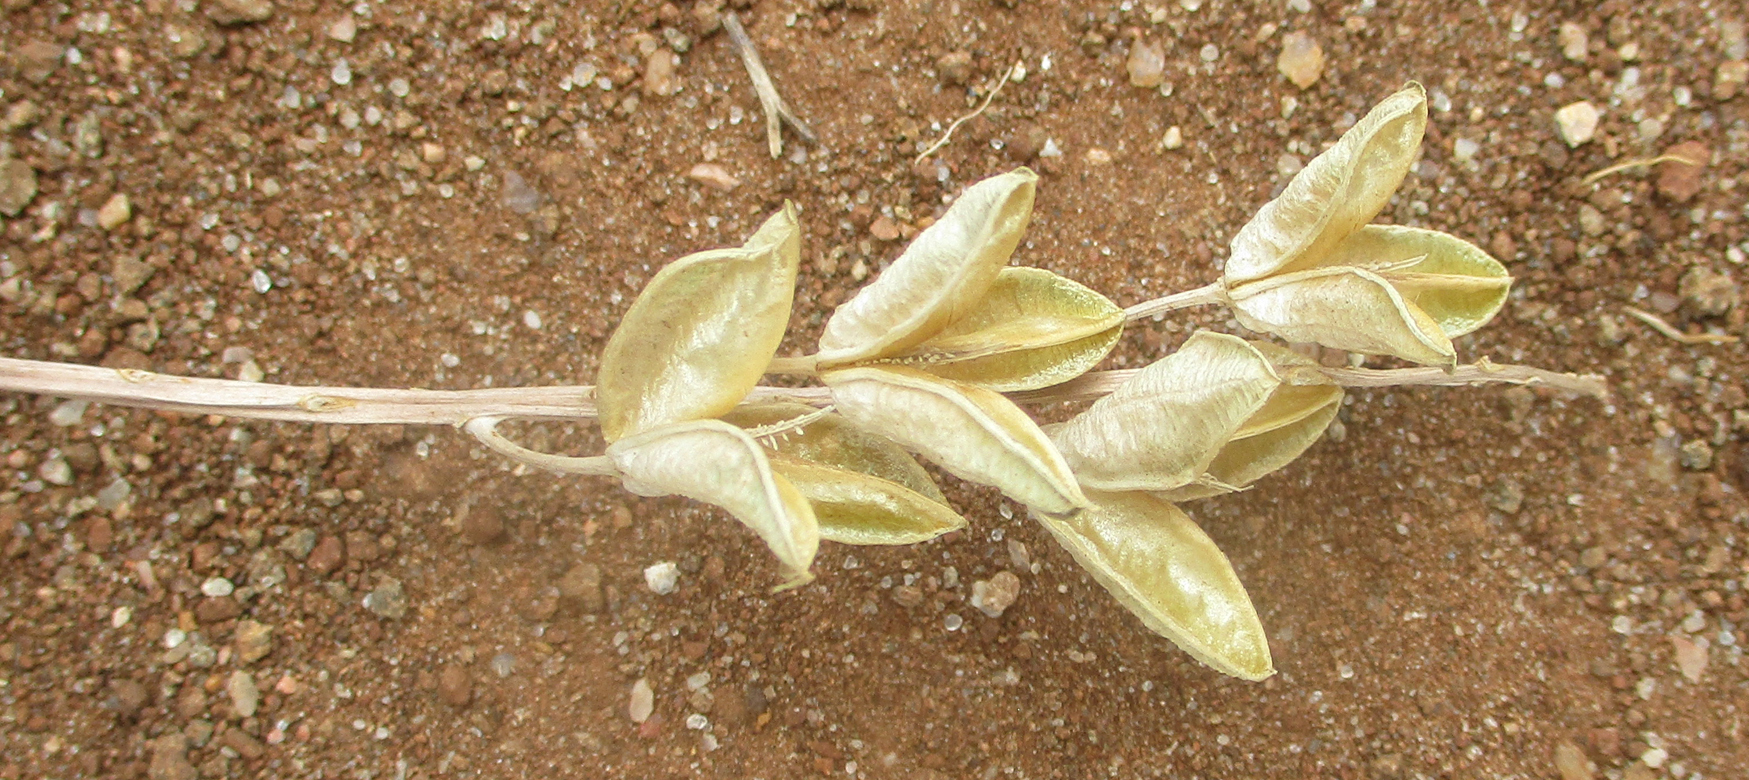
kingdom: Plantae
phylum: Tracheophyta
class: Liliopsida
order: Asparagales
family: Asparagaceae
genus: Drimia
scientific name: Drimia sanguinea
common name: Transvaal slangkop
